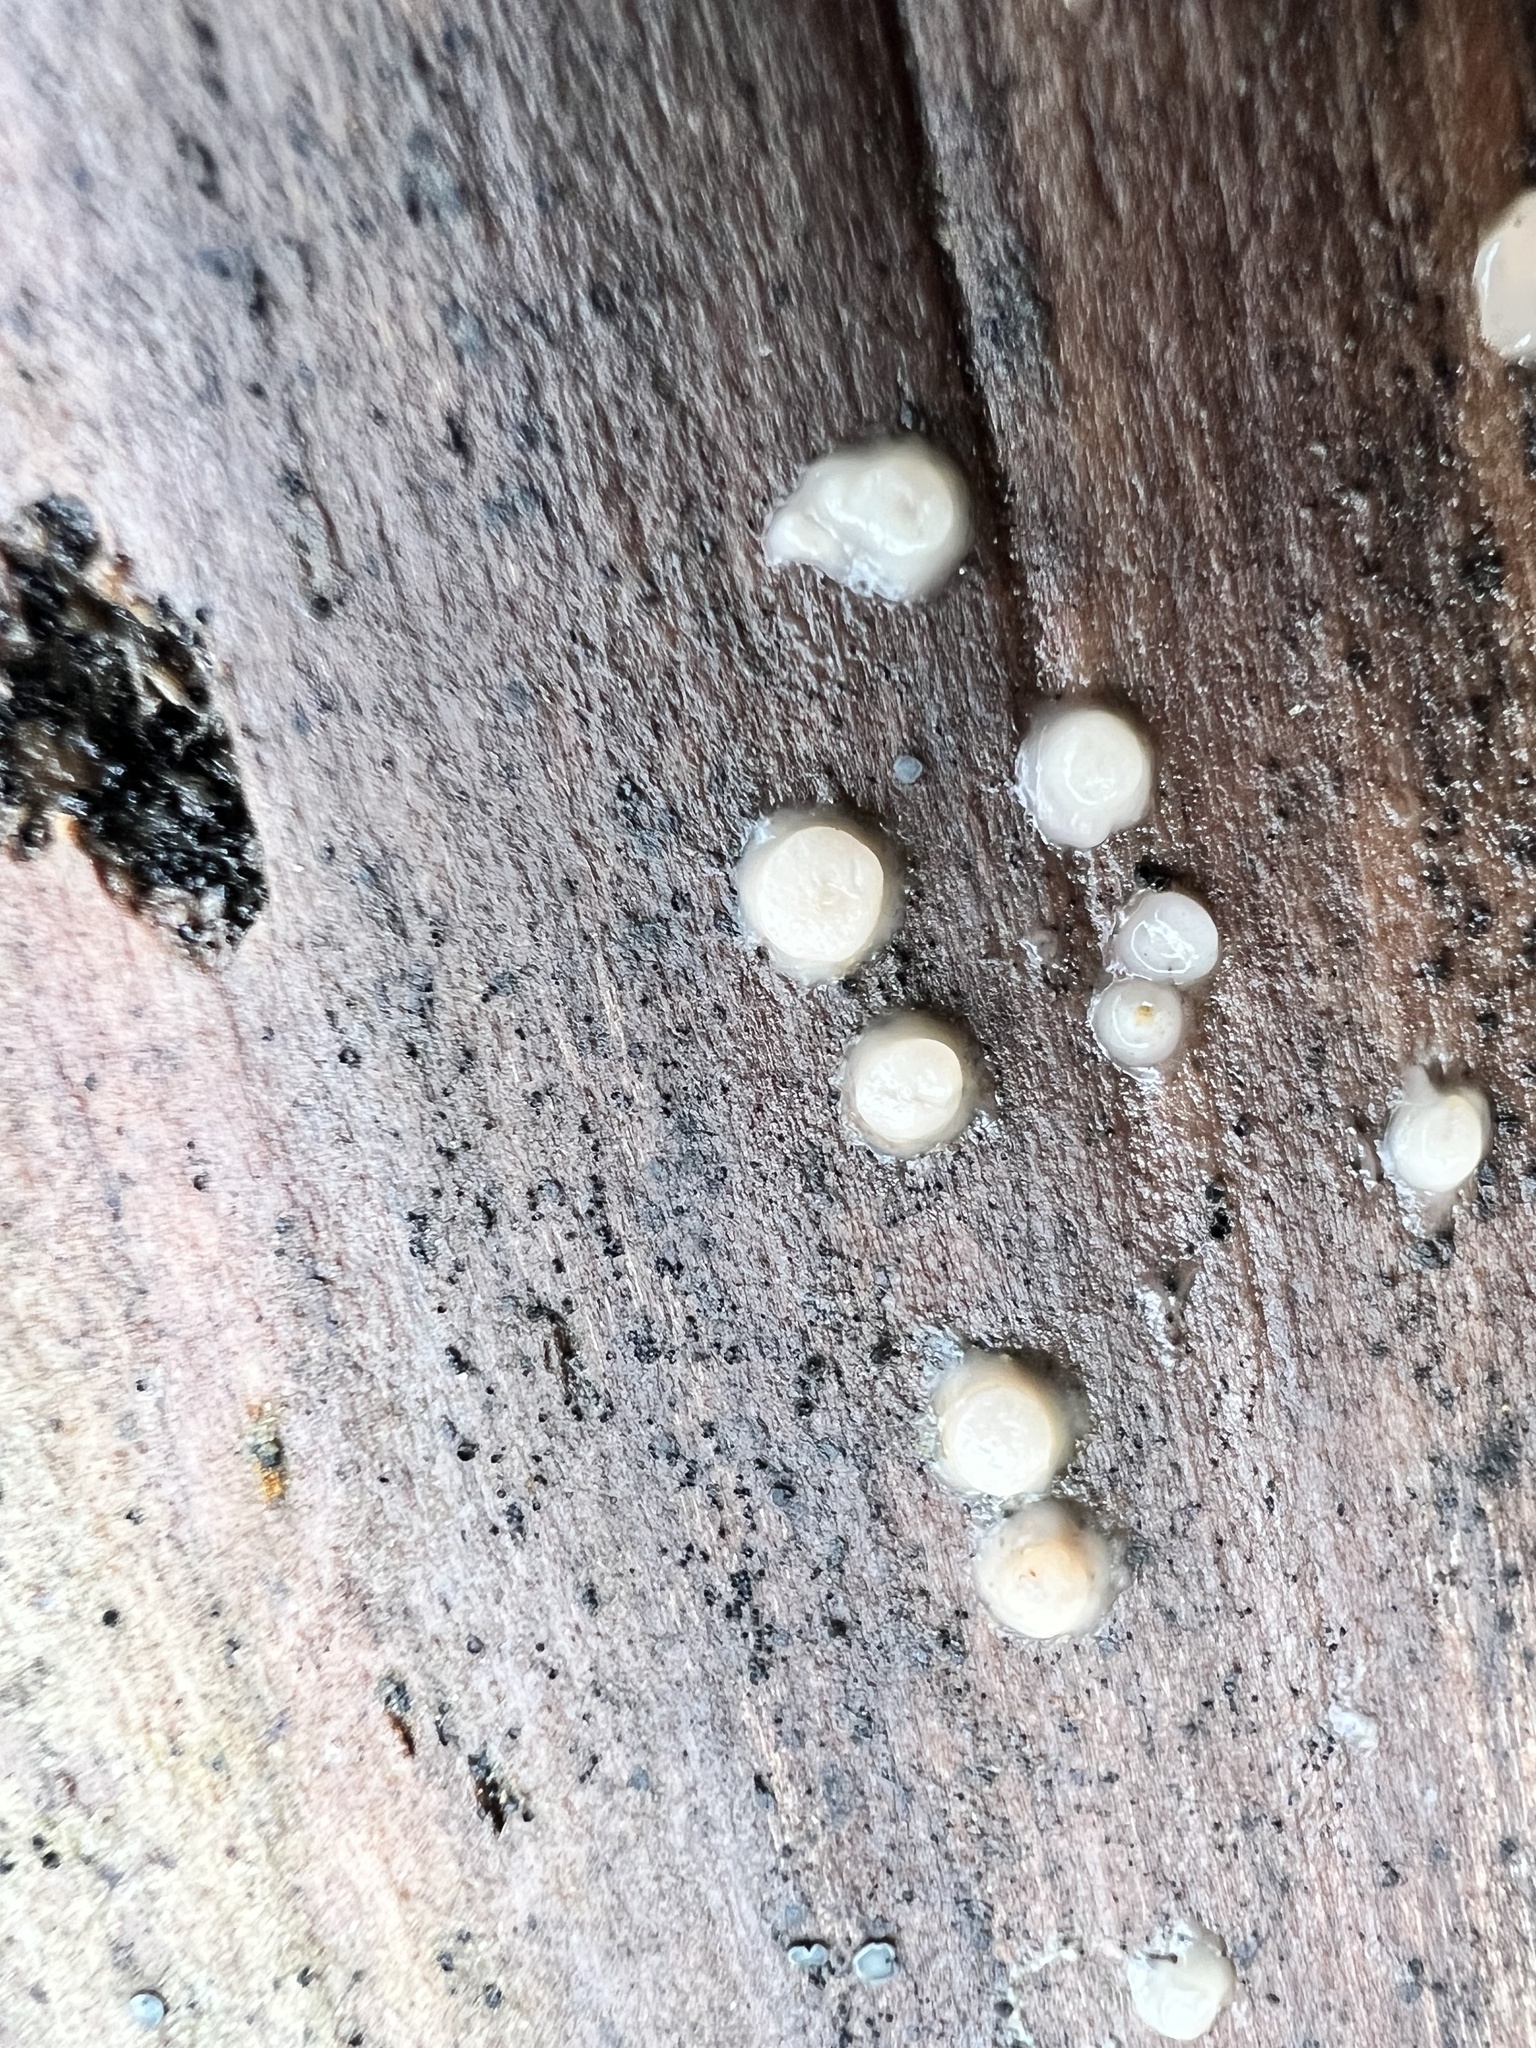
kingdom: Fungi
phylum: Basidiomycota
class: Atractiellomycetes
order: Atractiellales
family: Phleogenaceae
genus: Helicogloea
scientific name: Helicogloea compressa
